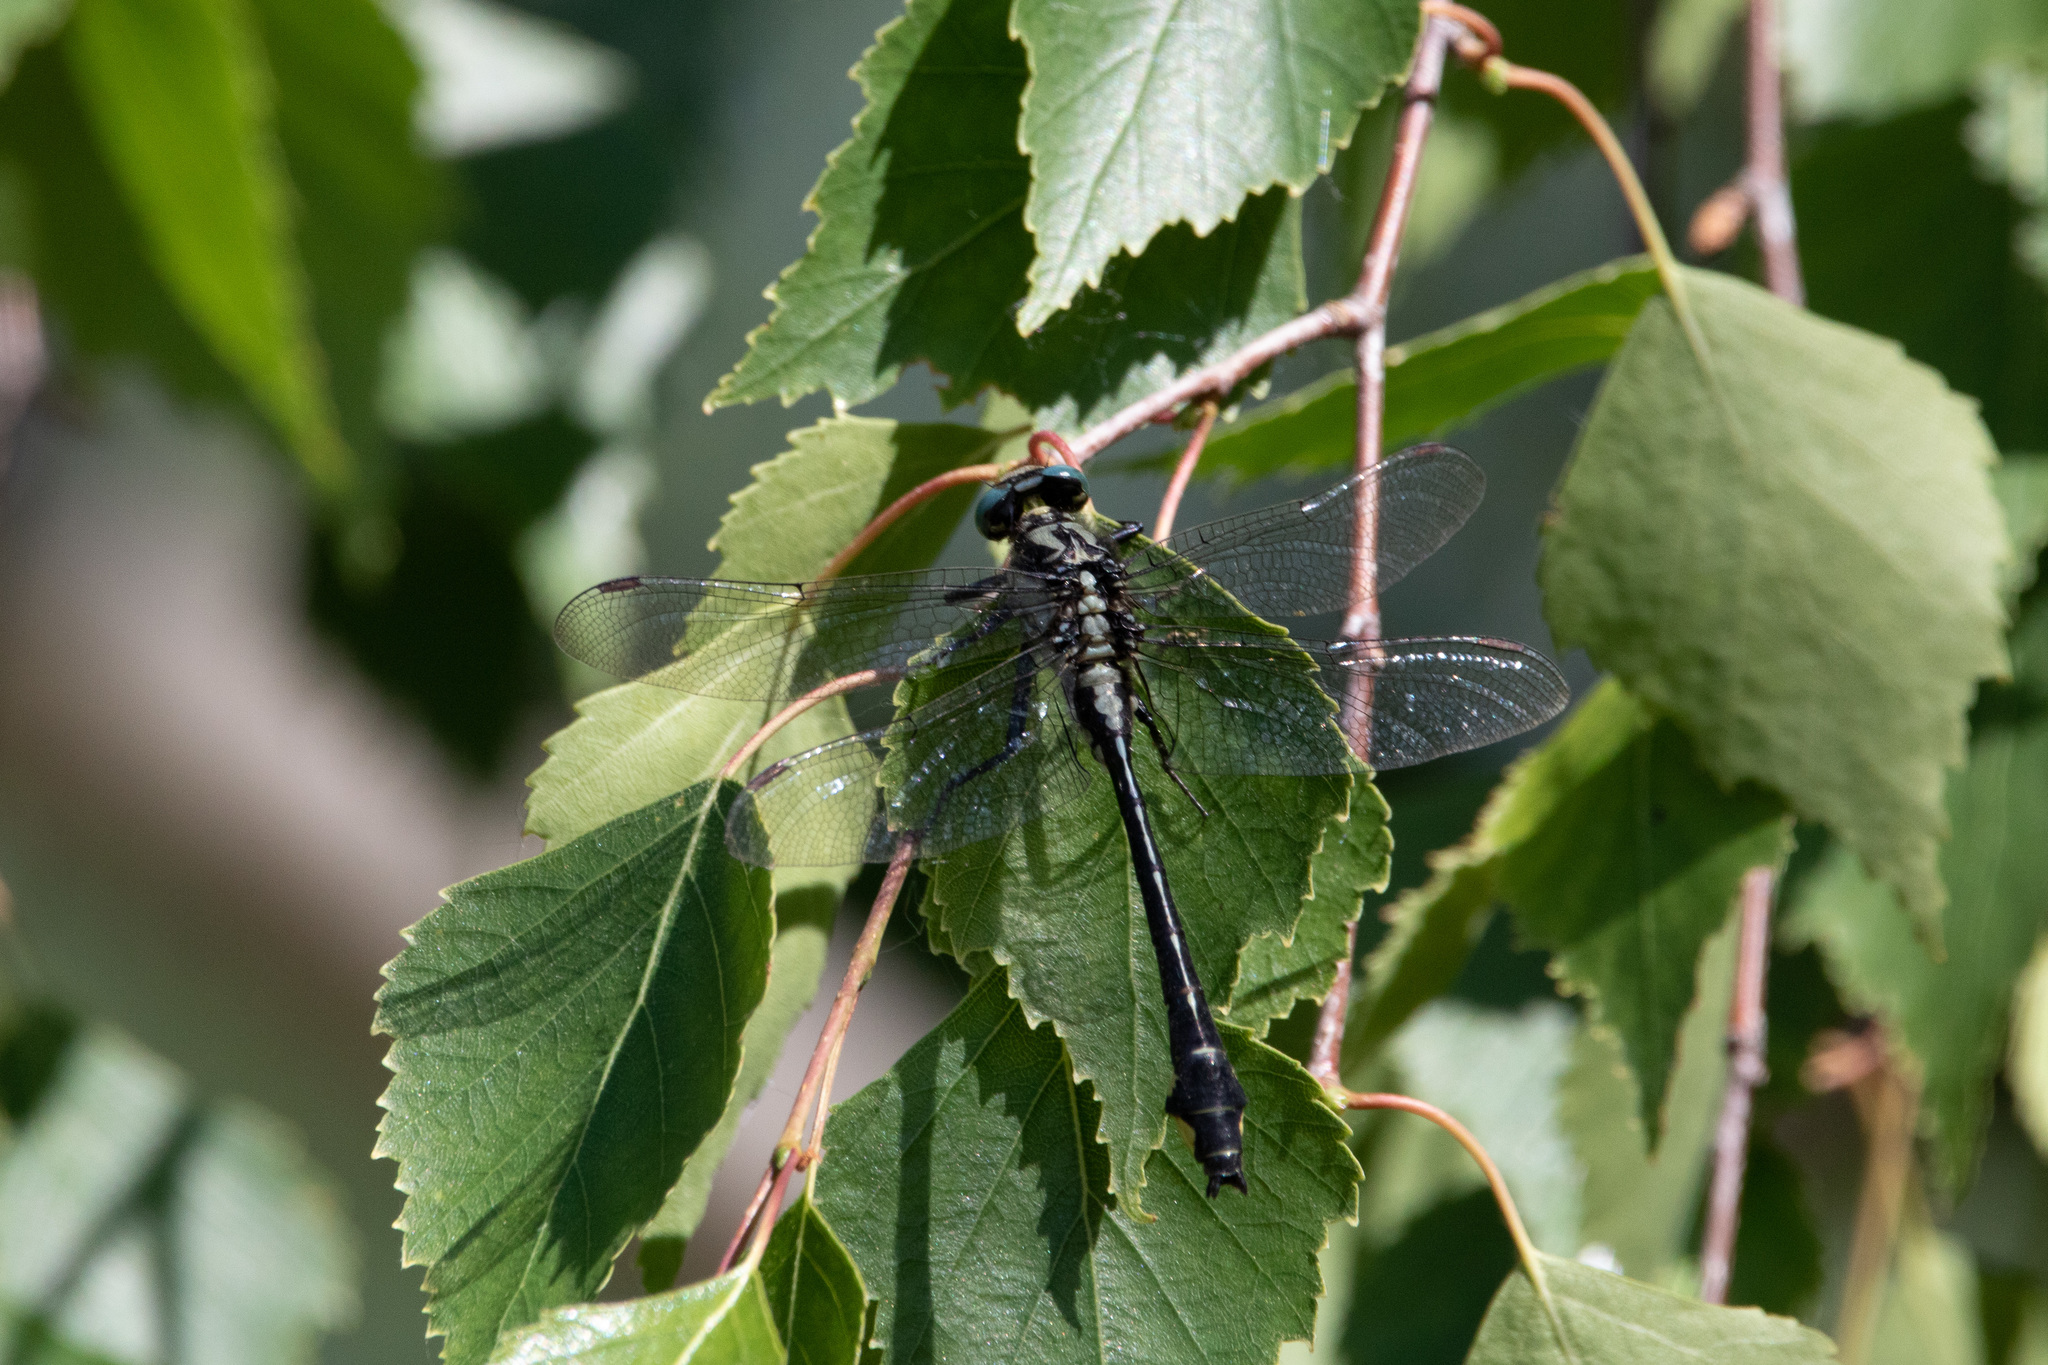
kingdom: Animalia
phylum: Arthropoda
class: Insecta
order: Odonata
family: Gomphidae
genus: Gomphus
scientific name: Gomphus vulgatissimus
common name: Club-tailed dragonfly
